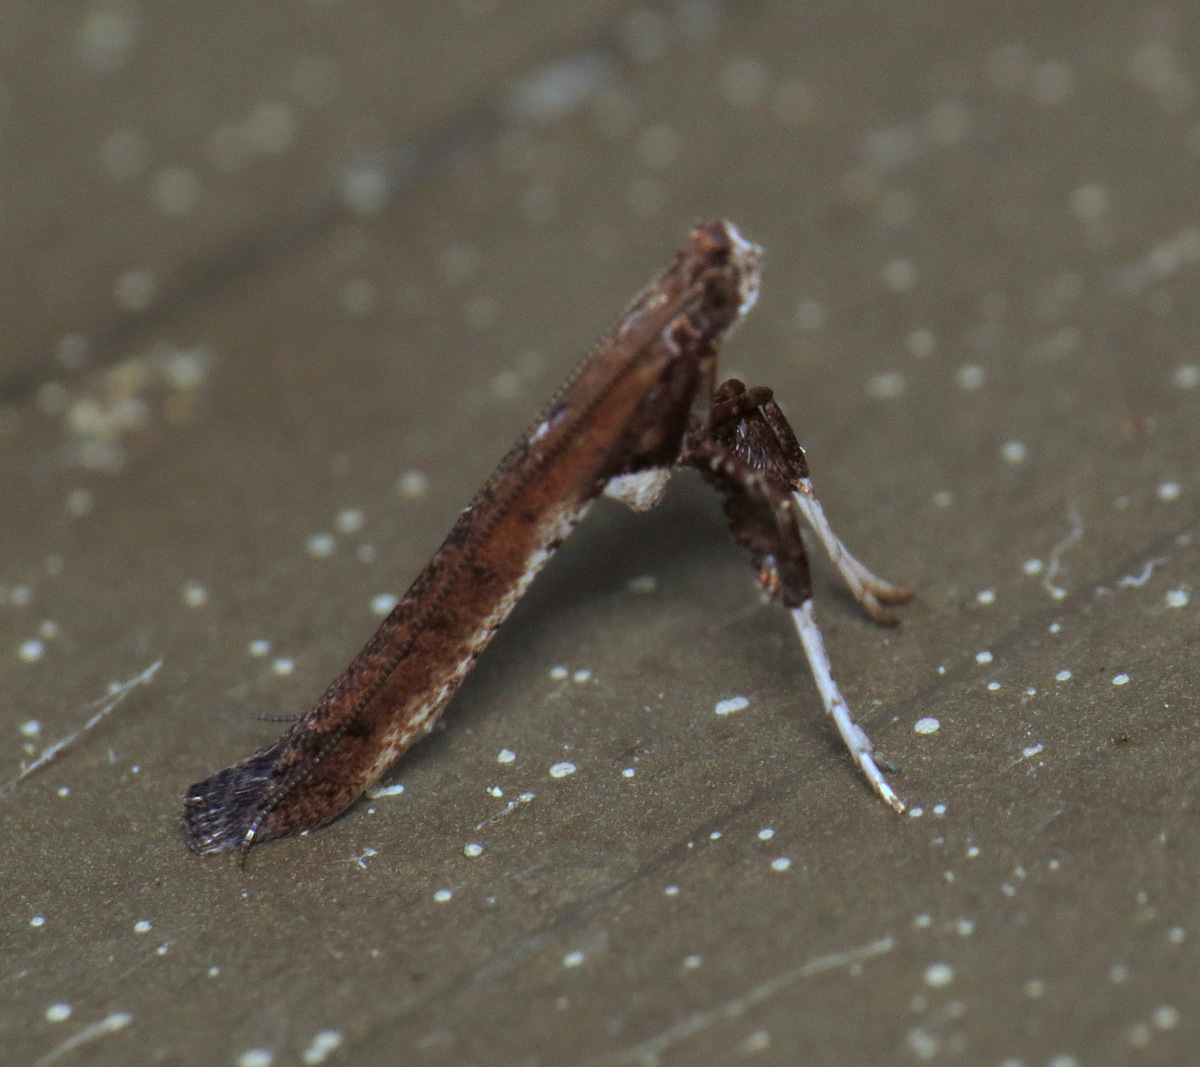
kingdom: Animalia
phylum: Arthropoda
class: Insecta
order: Lepidoptera
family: Gracillariidae
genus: Caloptilia
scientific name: Caloptilia rhoifoliella
